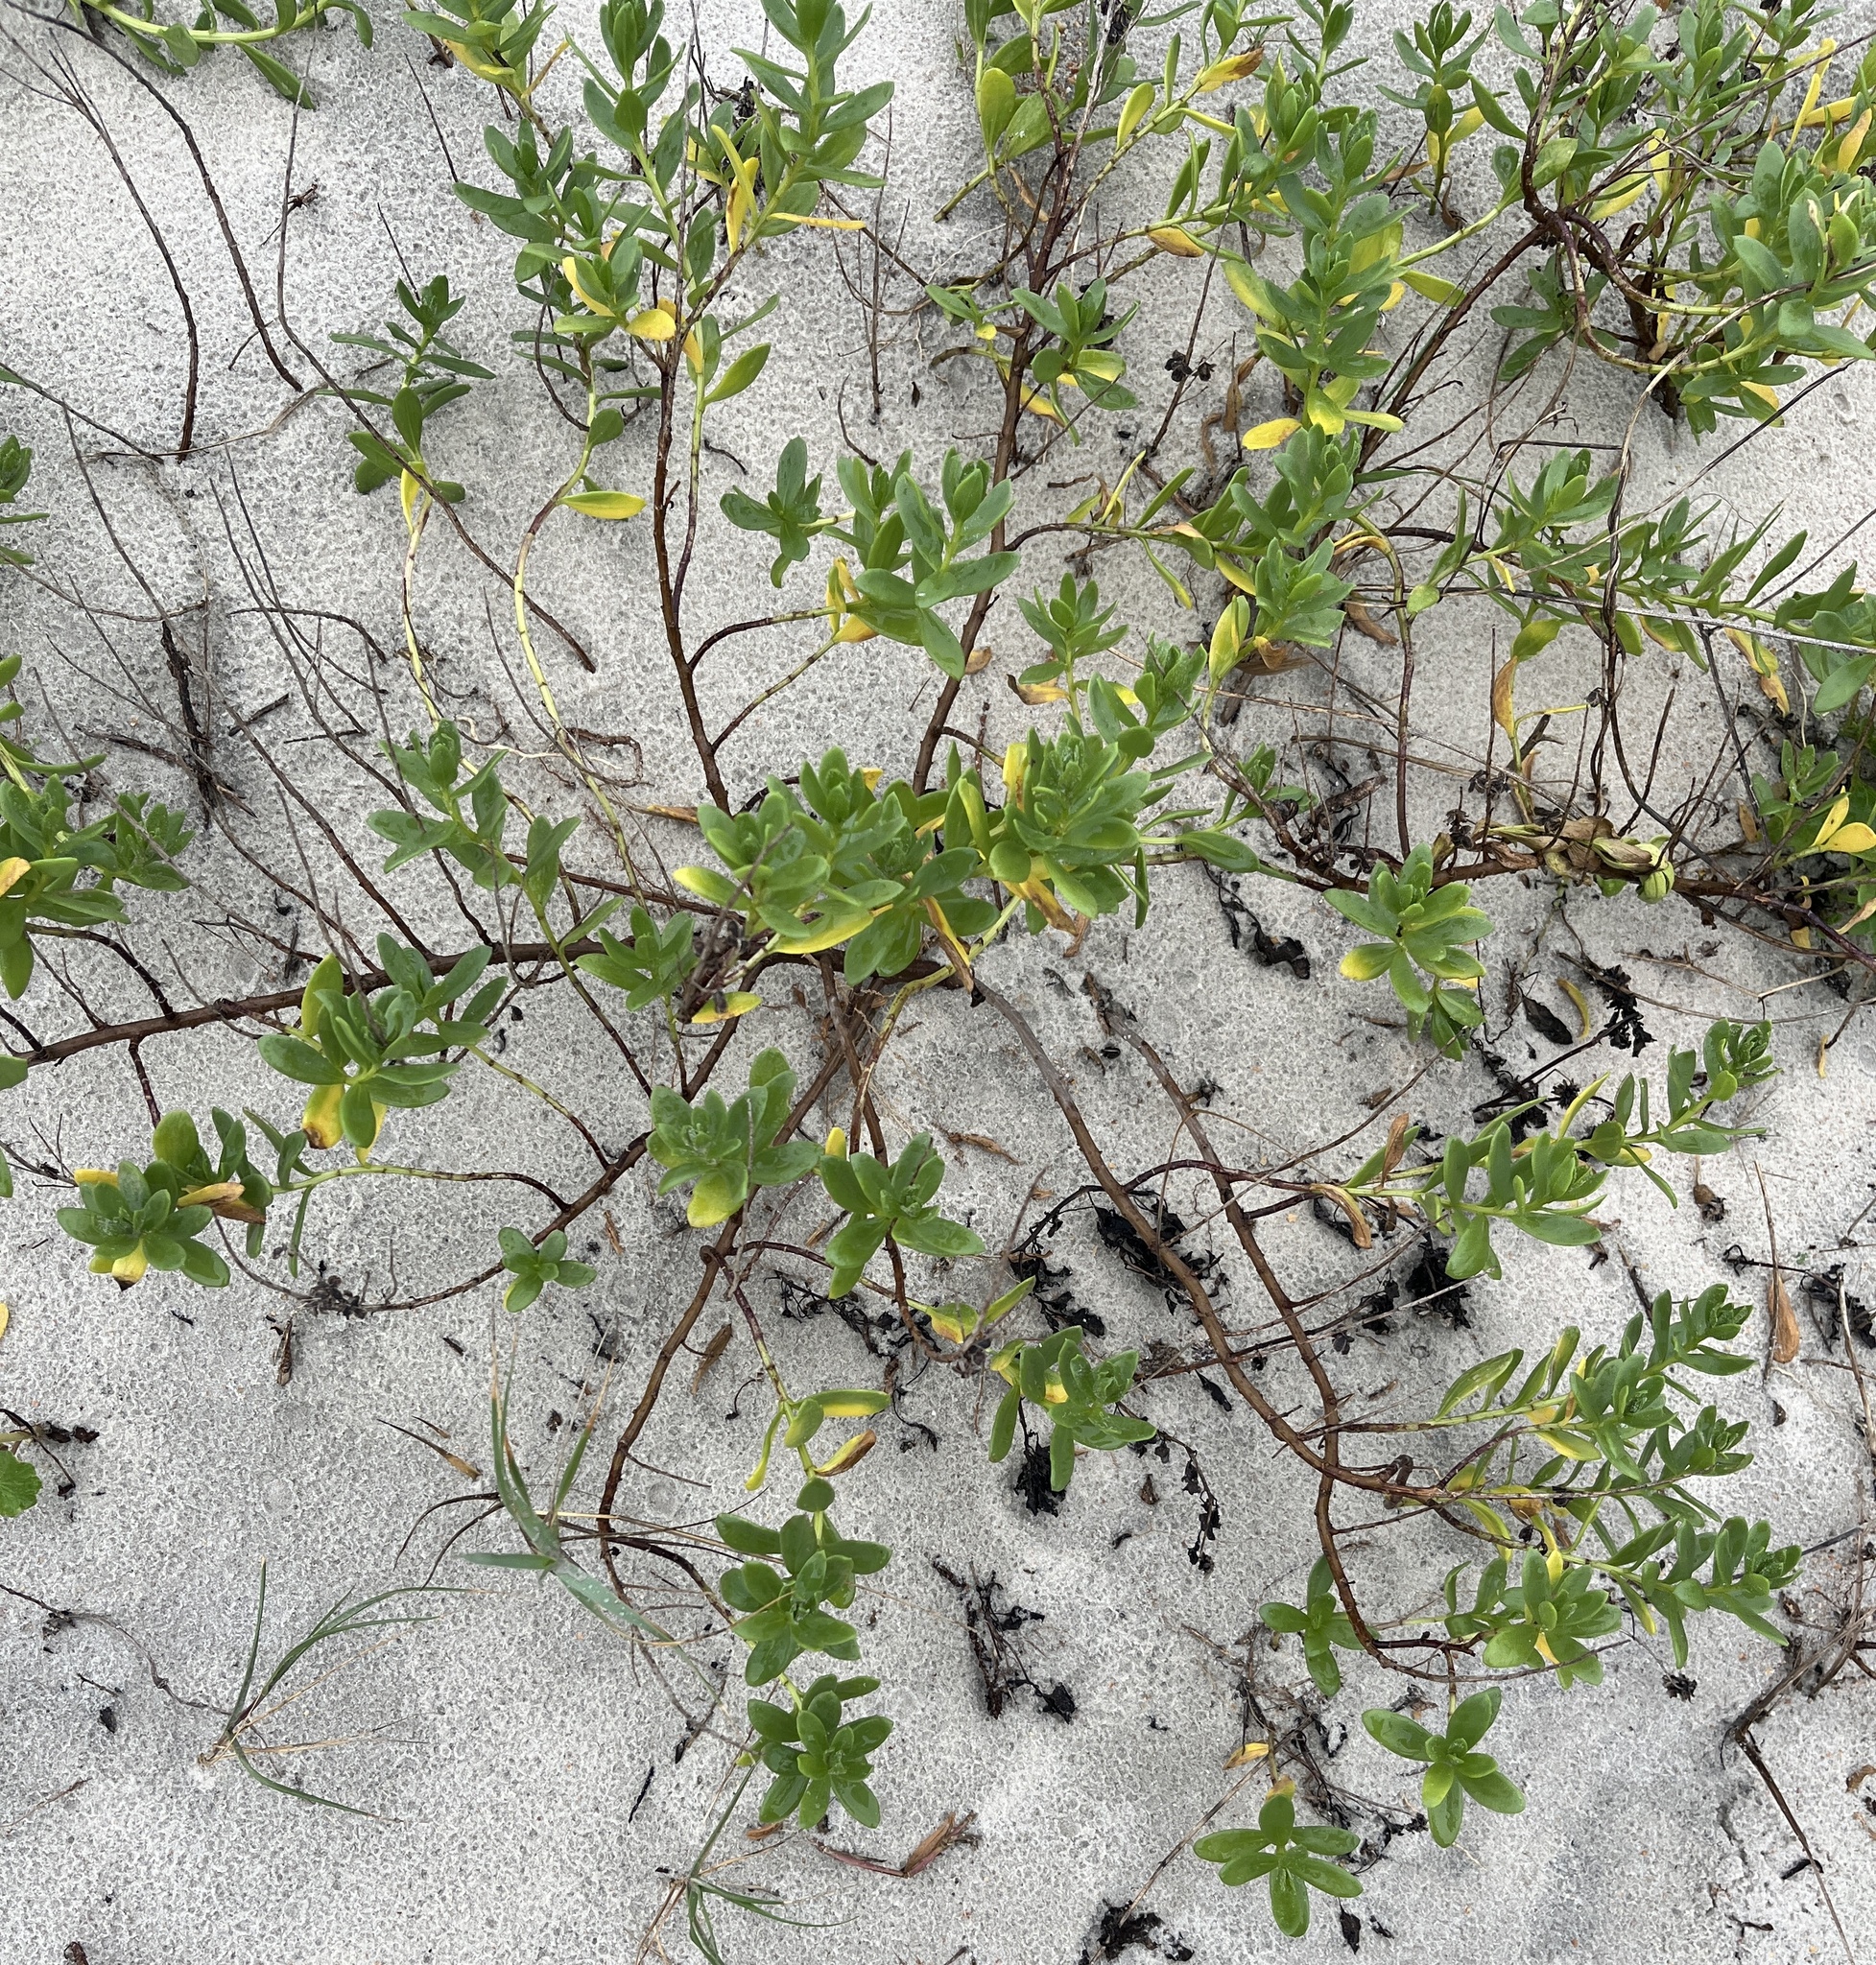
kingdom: Plantae
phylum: Tracheophyta
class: Magnoliopsida
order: Asterales
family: Asteraceae
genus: Iva
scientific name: Iva imbricata
